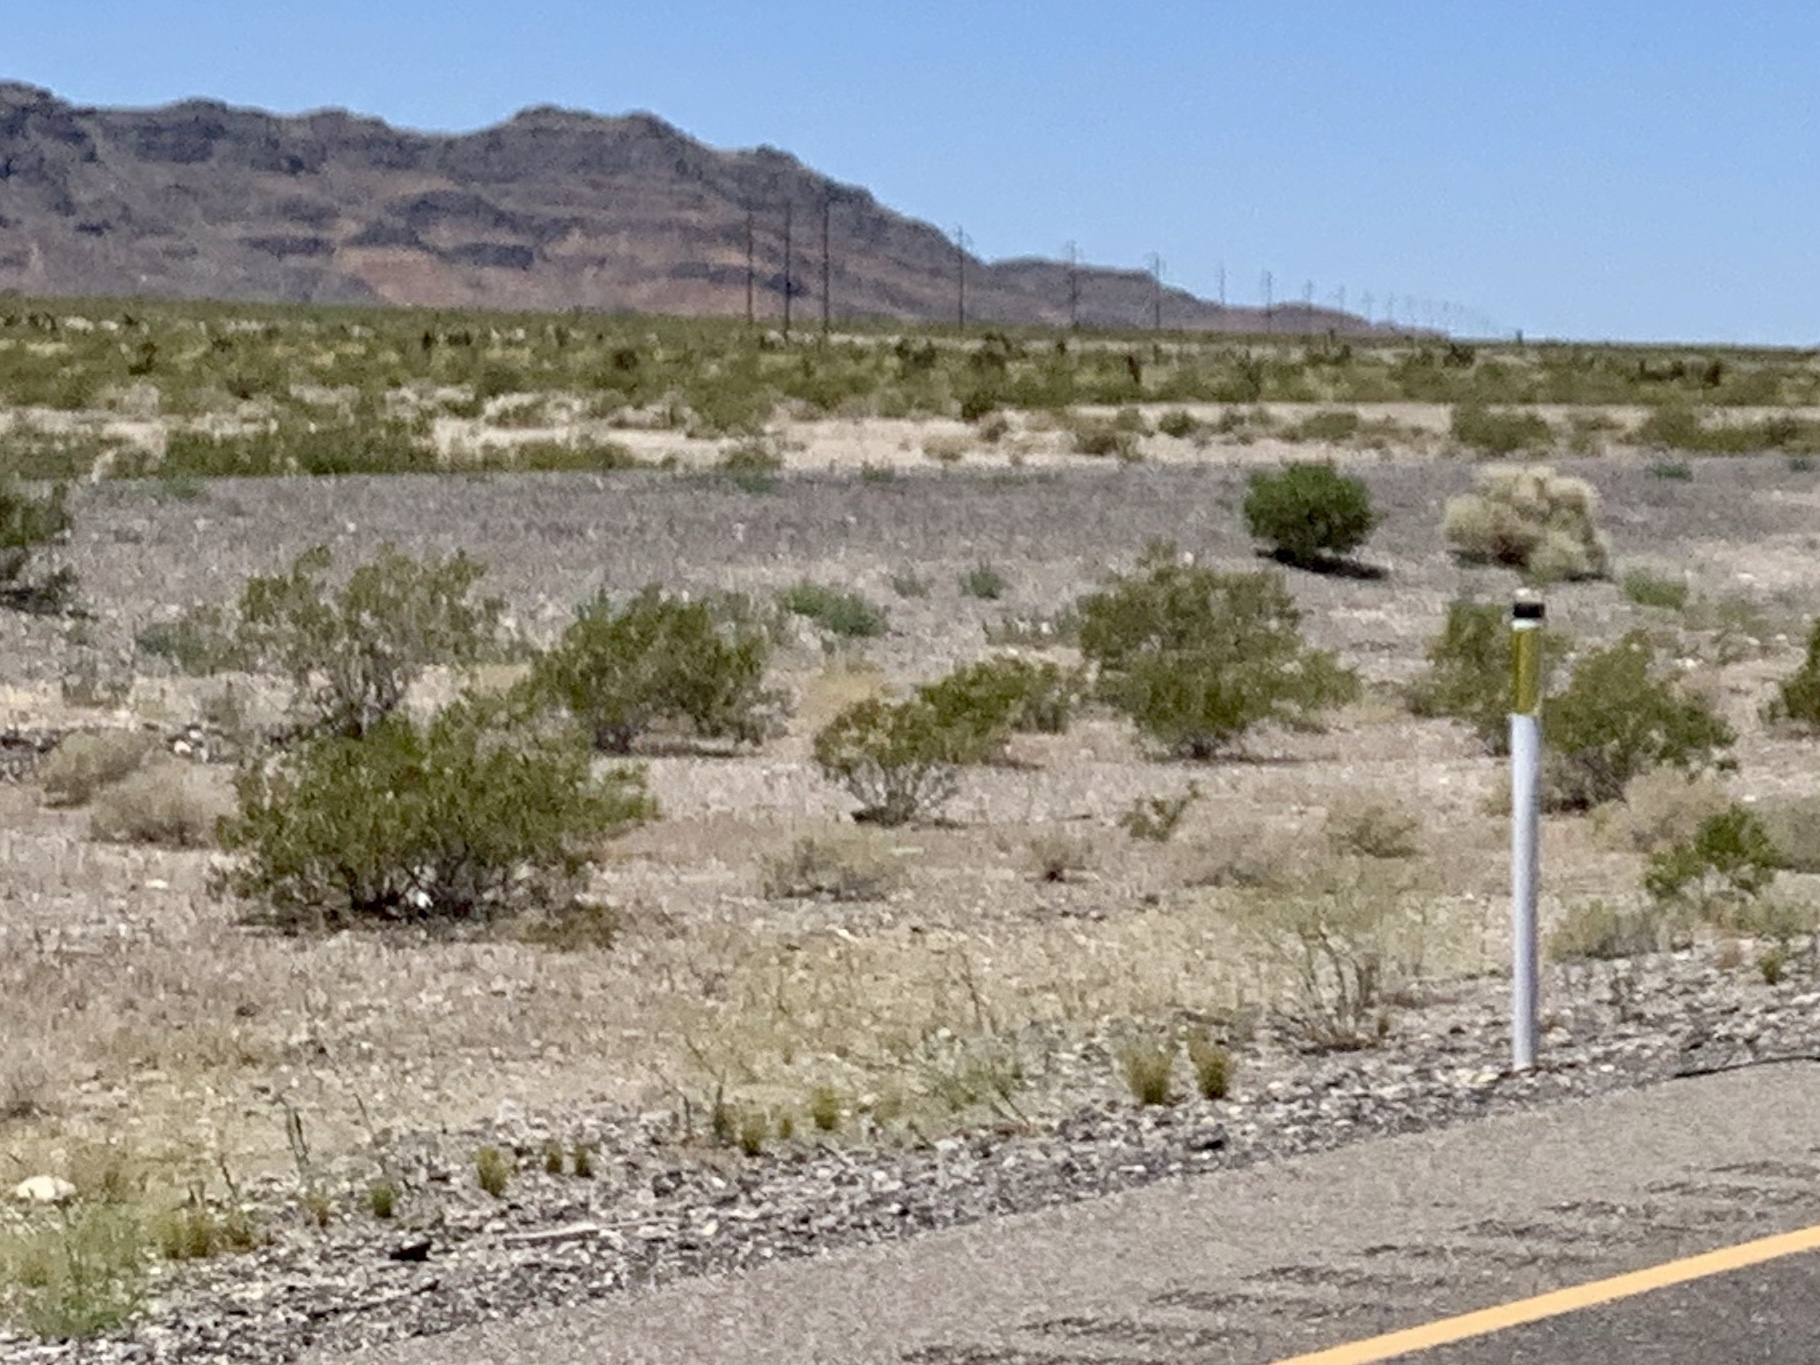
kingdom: Plantae
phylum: Tracheophyta
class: Magnoliopsida
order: Zygophyllales
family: Zygophyllaceae
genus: Larrea
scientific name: Larrea tridentata
